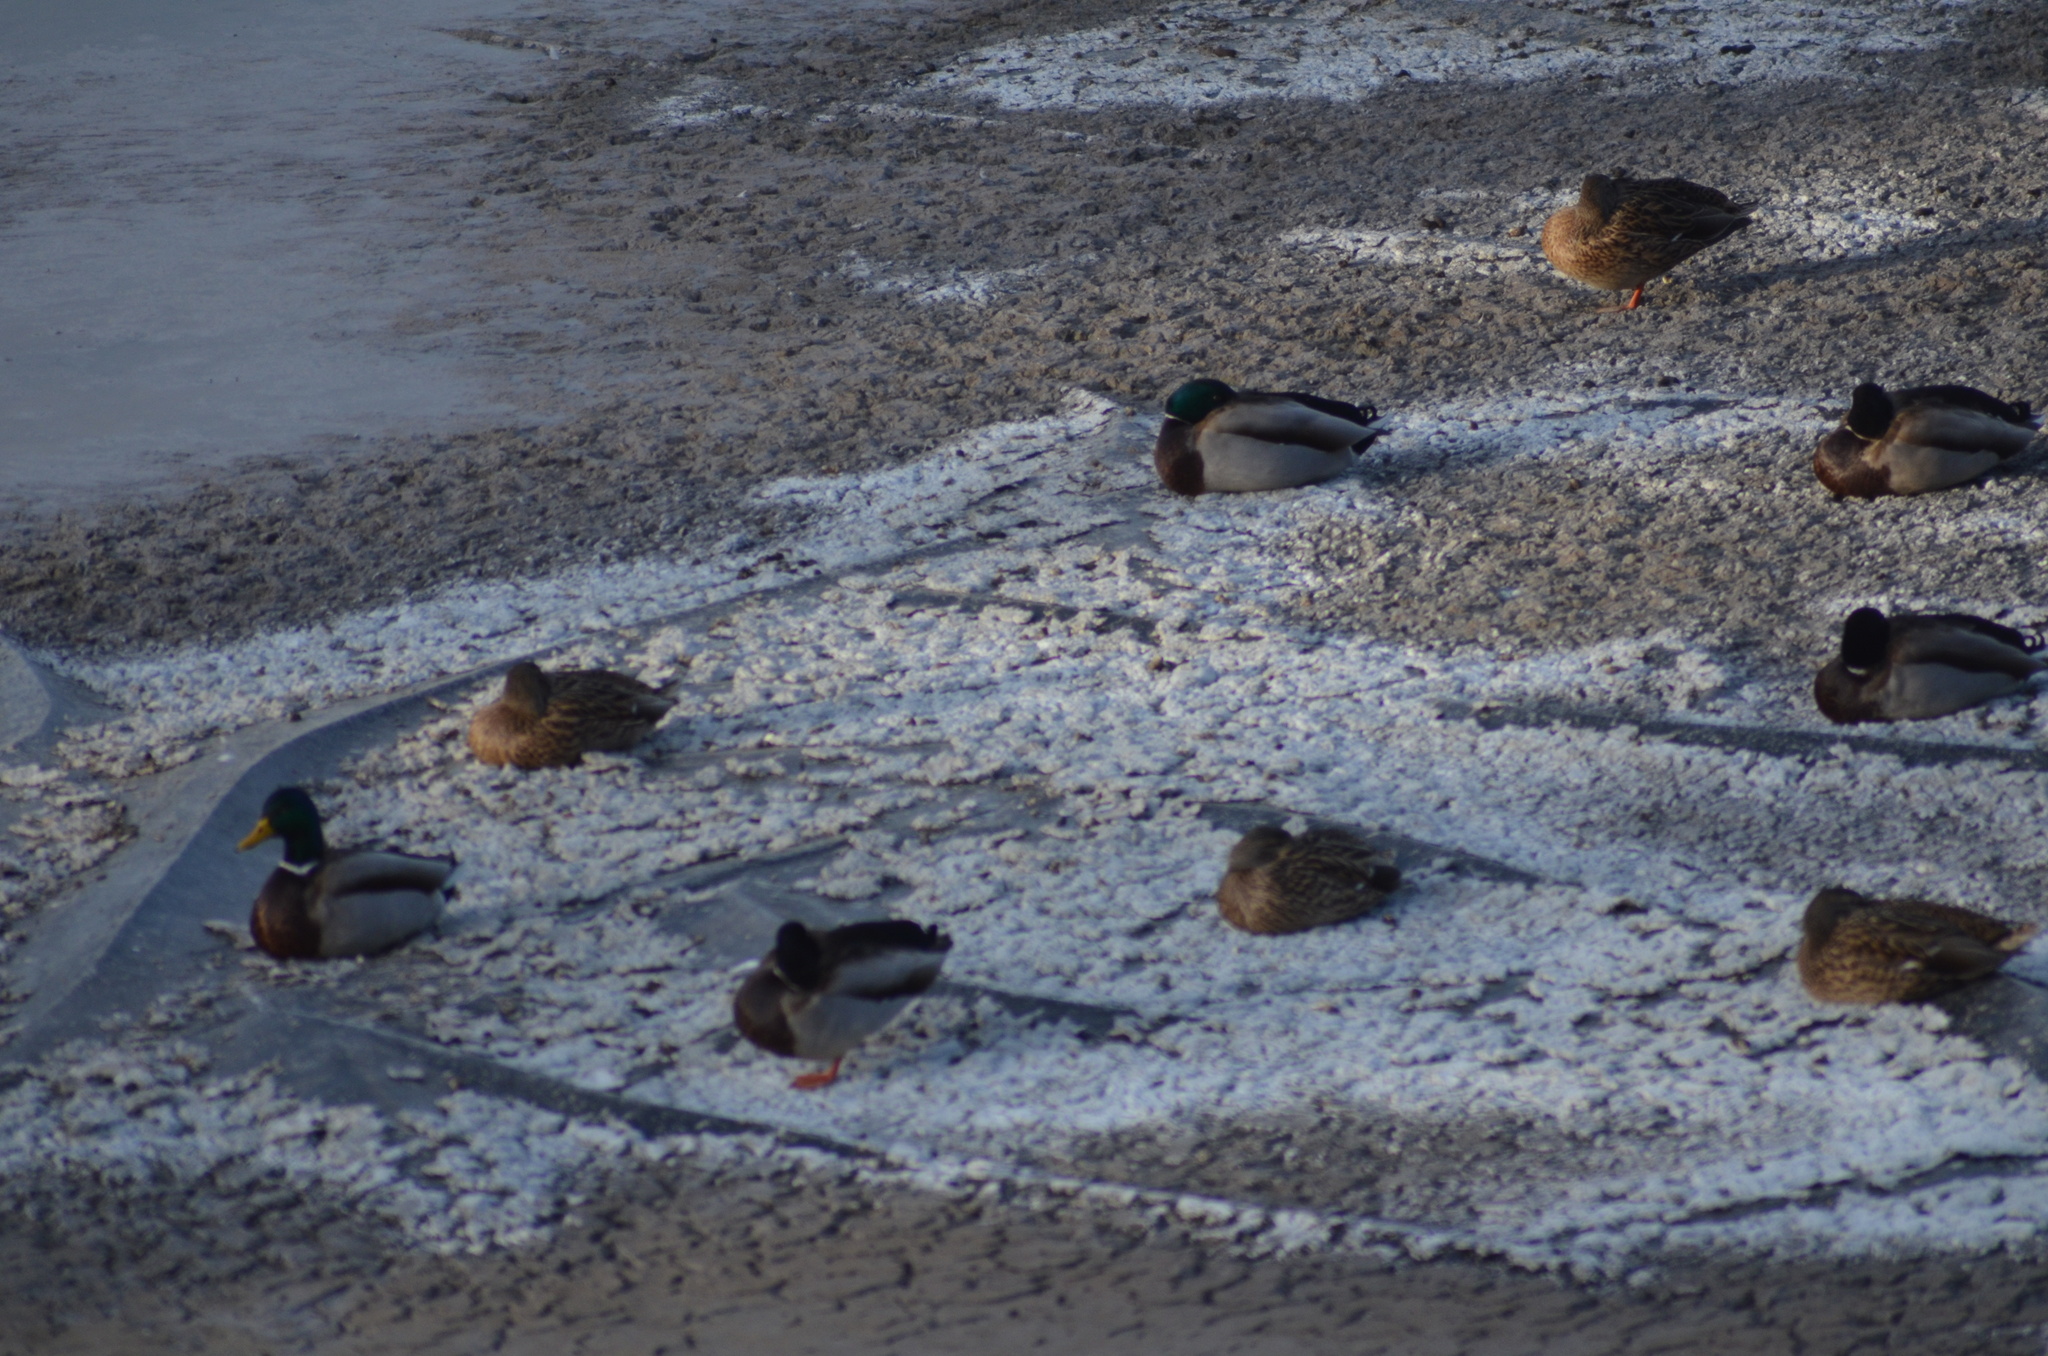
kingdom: Animalia
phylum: Chordata
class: Aves
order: Anseriformes
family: Anatidae
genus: Anas
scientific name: Anas platyrhynchos
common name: Mallard
